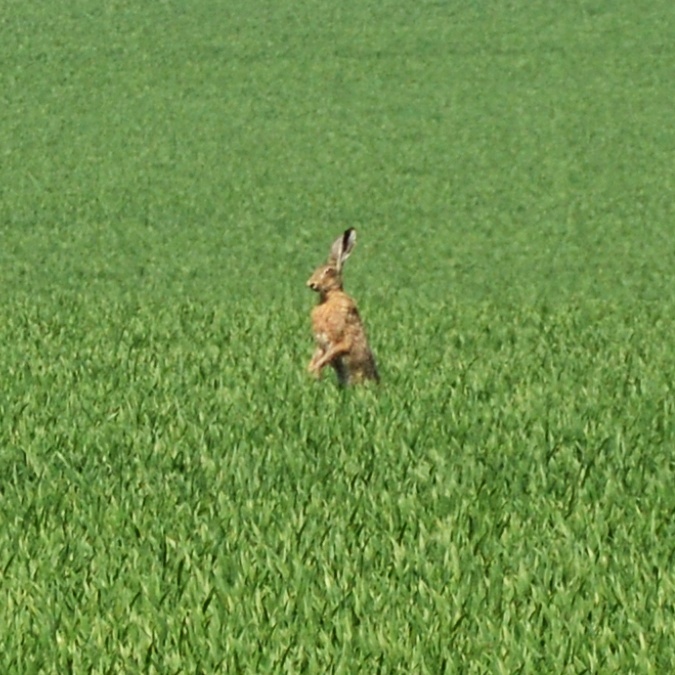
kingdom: Animalia
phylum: Chordata
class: Mammalia
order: Lagomorpha
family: Leporidae
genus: Lepus
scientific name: Lepus europaeus
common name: European hare
